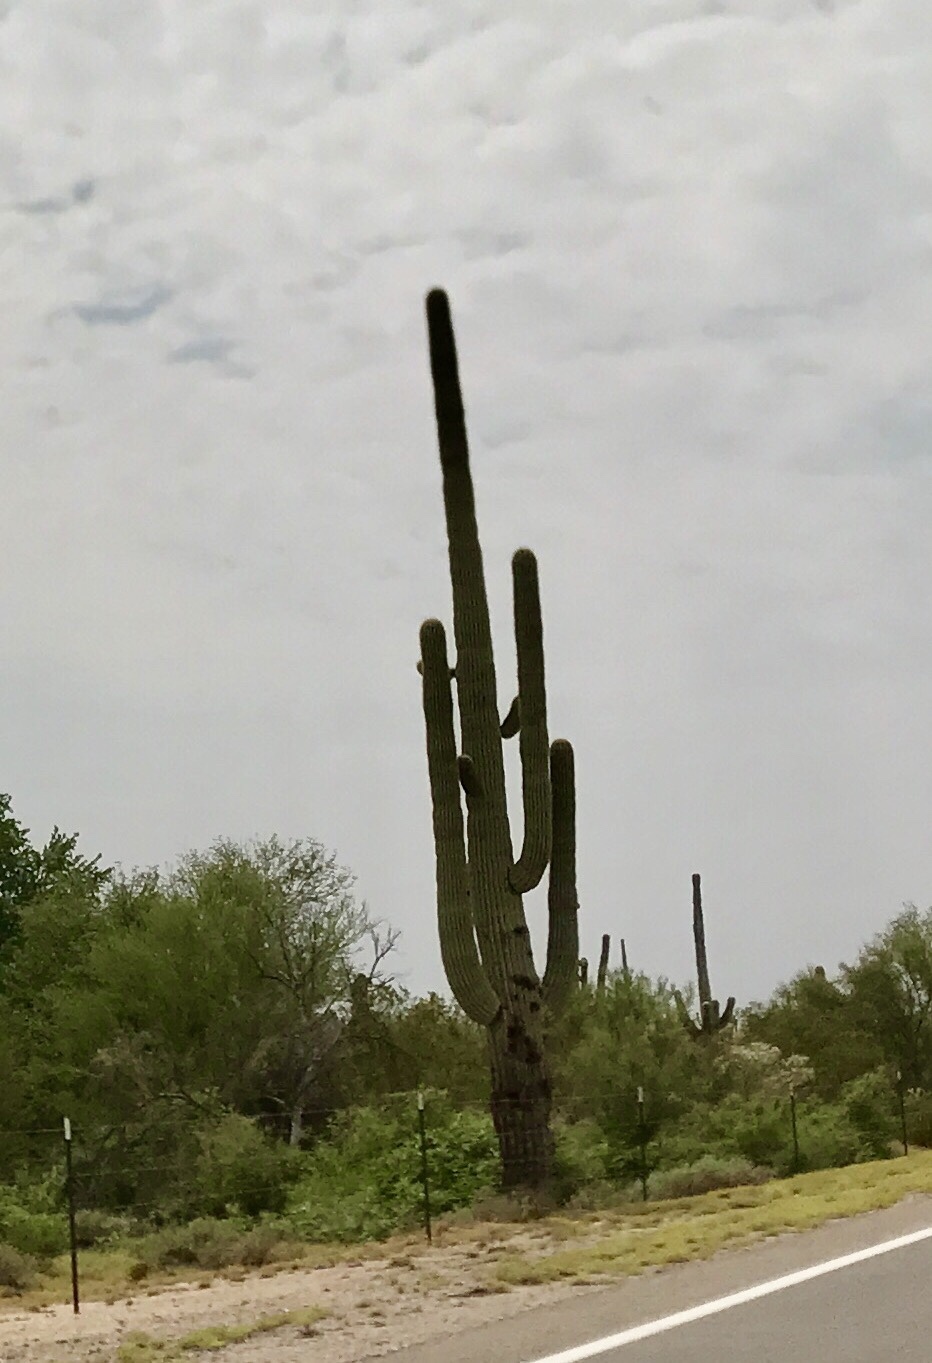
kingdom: Plantae
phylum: Tracheophyta
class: Magnoliopsida
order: Caryophyllales
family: Cactaceae
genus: Carnegiea
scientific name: Carnegiea gigantea
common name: Saguaro
